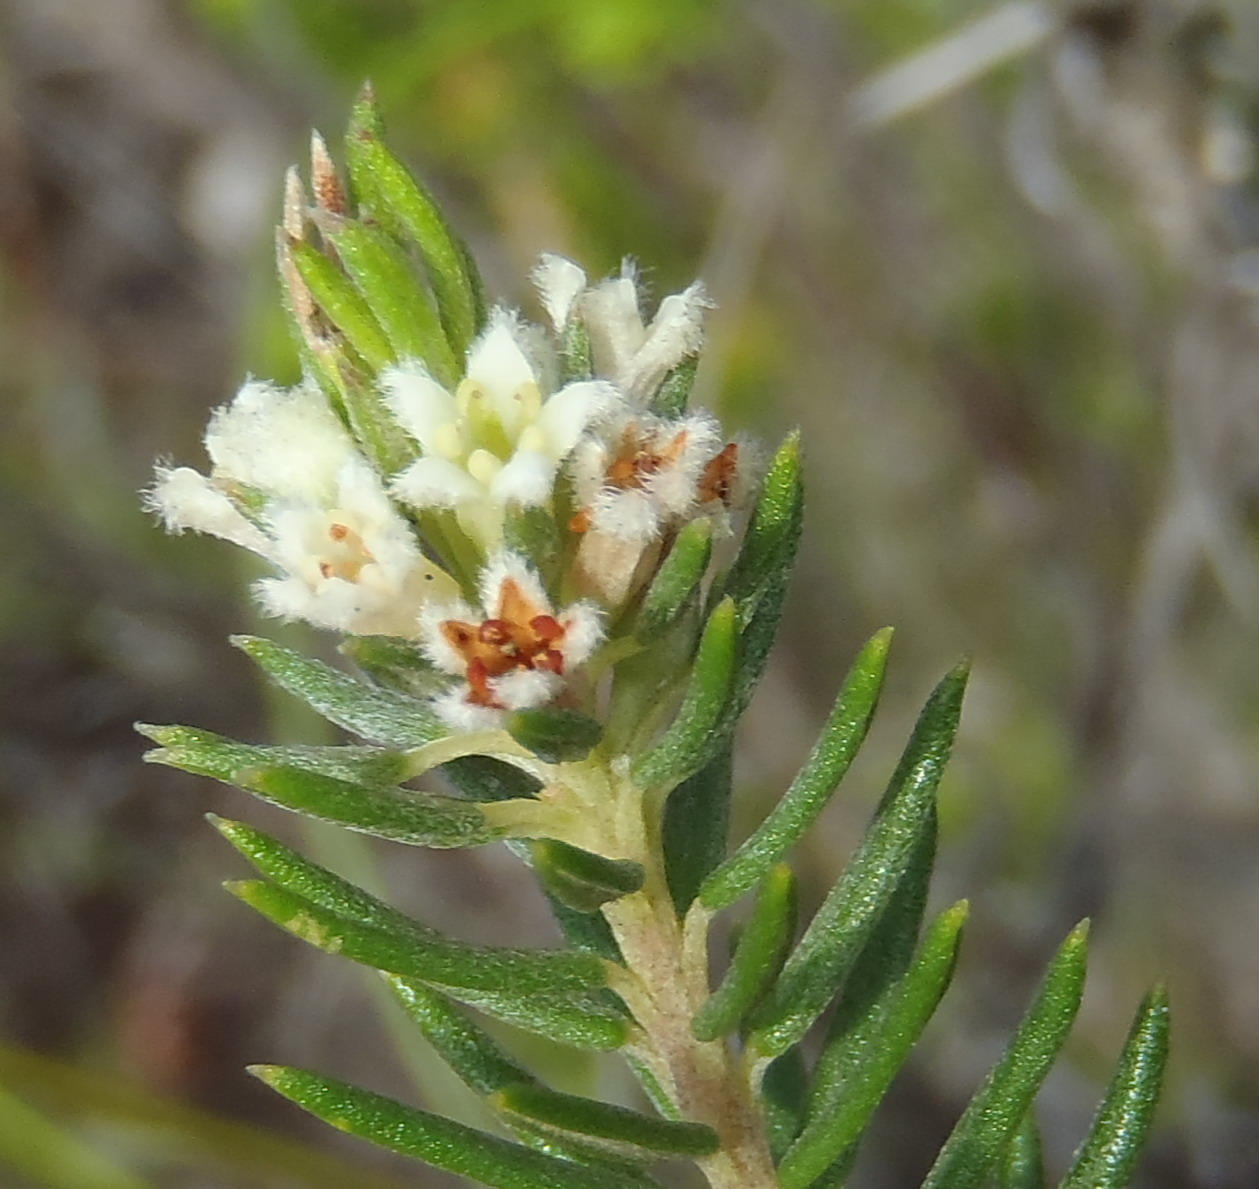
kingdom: Plantae
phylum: Tracheophyta
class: Magnoliopsida
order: Rosales
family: Rhamnaceae
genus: Phylica
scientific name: Phylica willdenowiana
